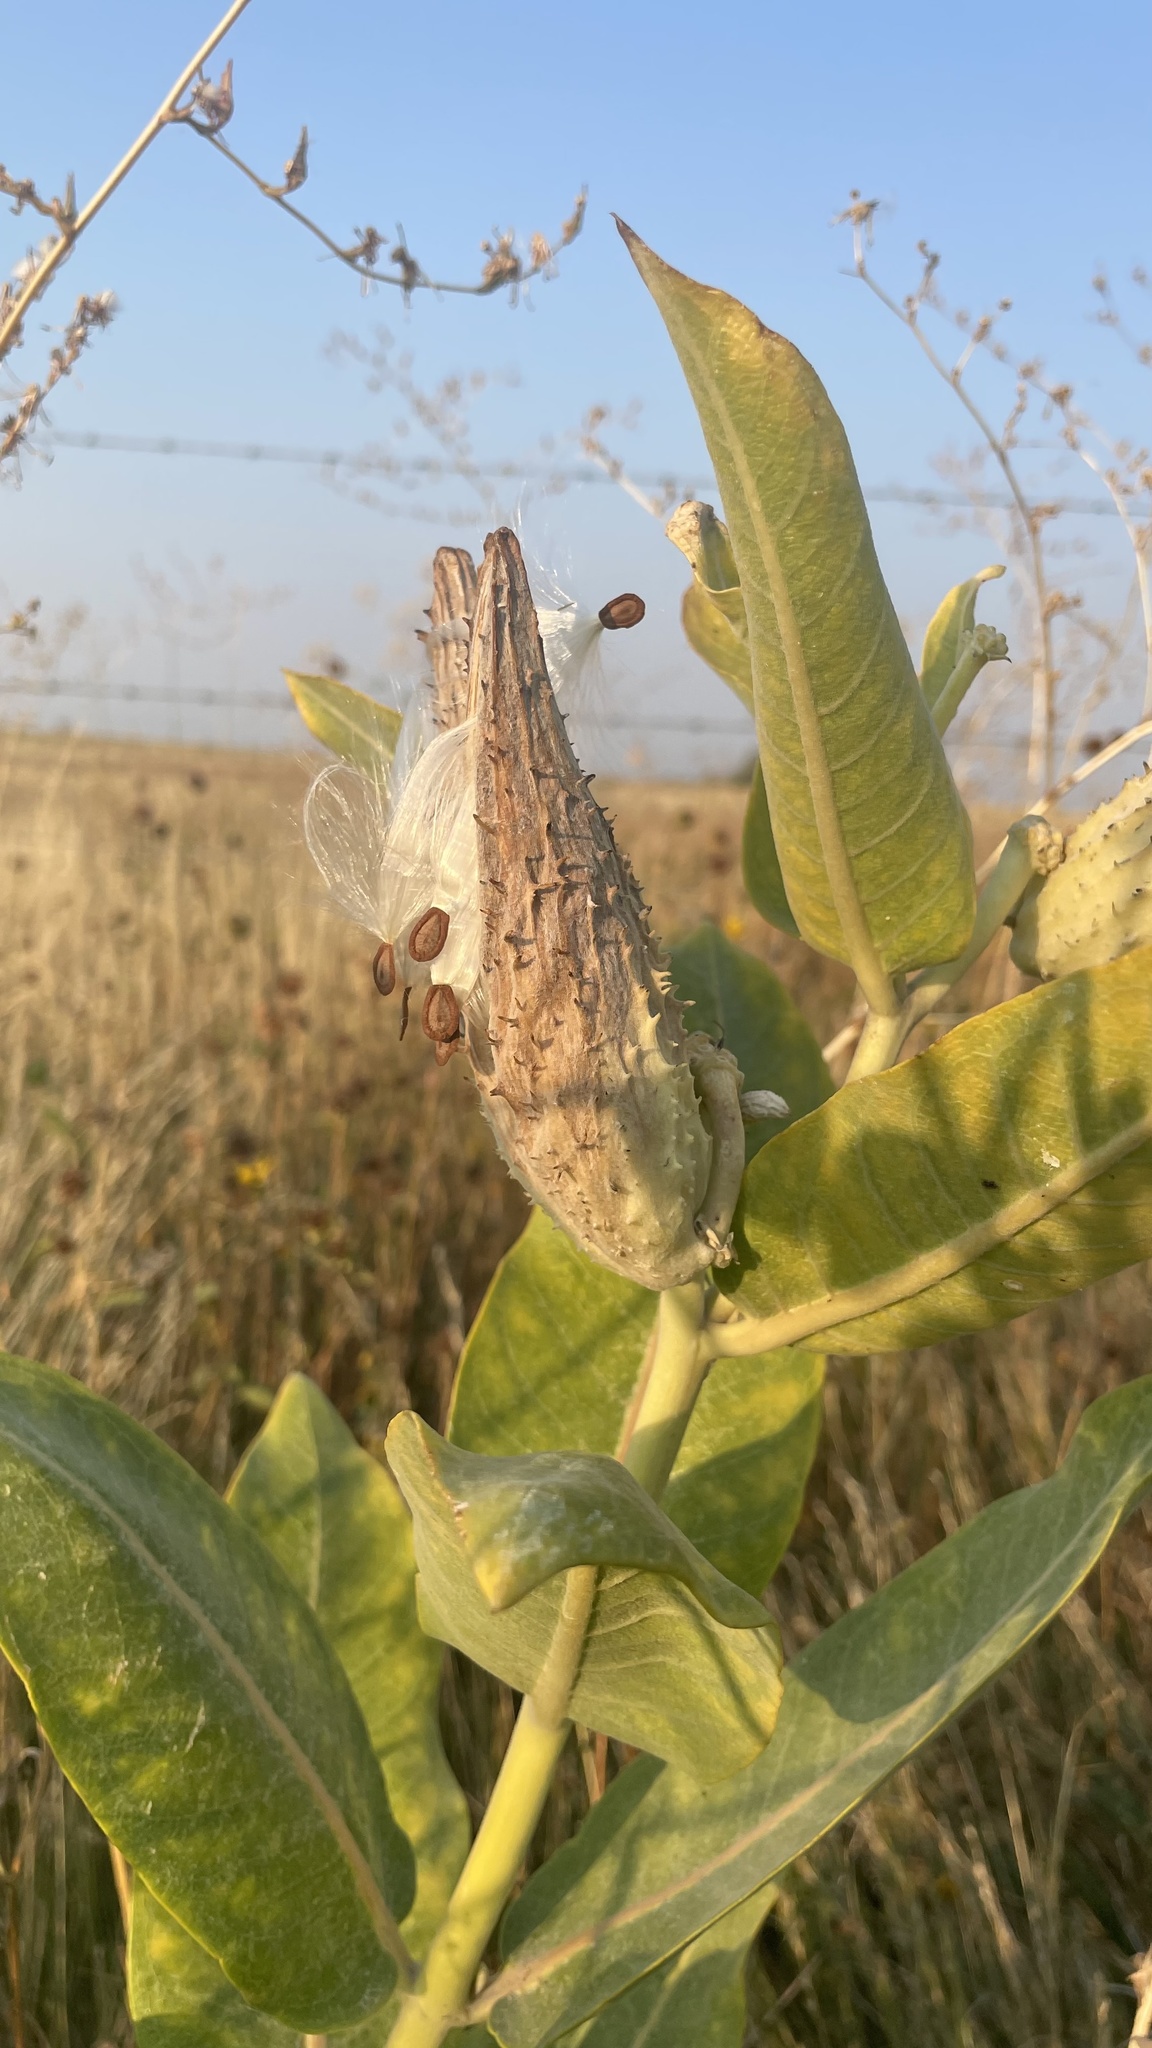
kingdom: Plantae
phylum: Tracheophyta
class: Magnoliopsida
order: Gentianales
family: Apocynaceae
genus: Asclepias
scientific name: Asclepias speciosa
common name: Showy milkweed
